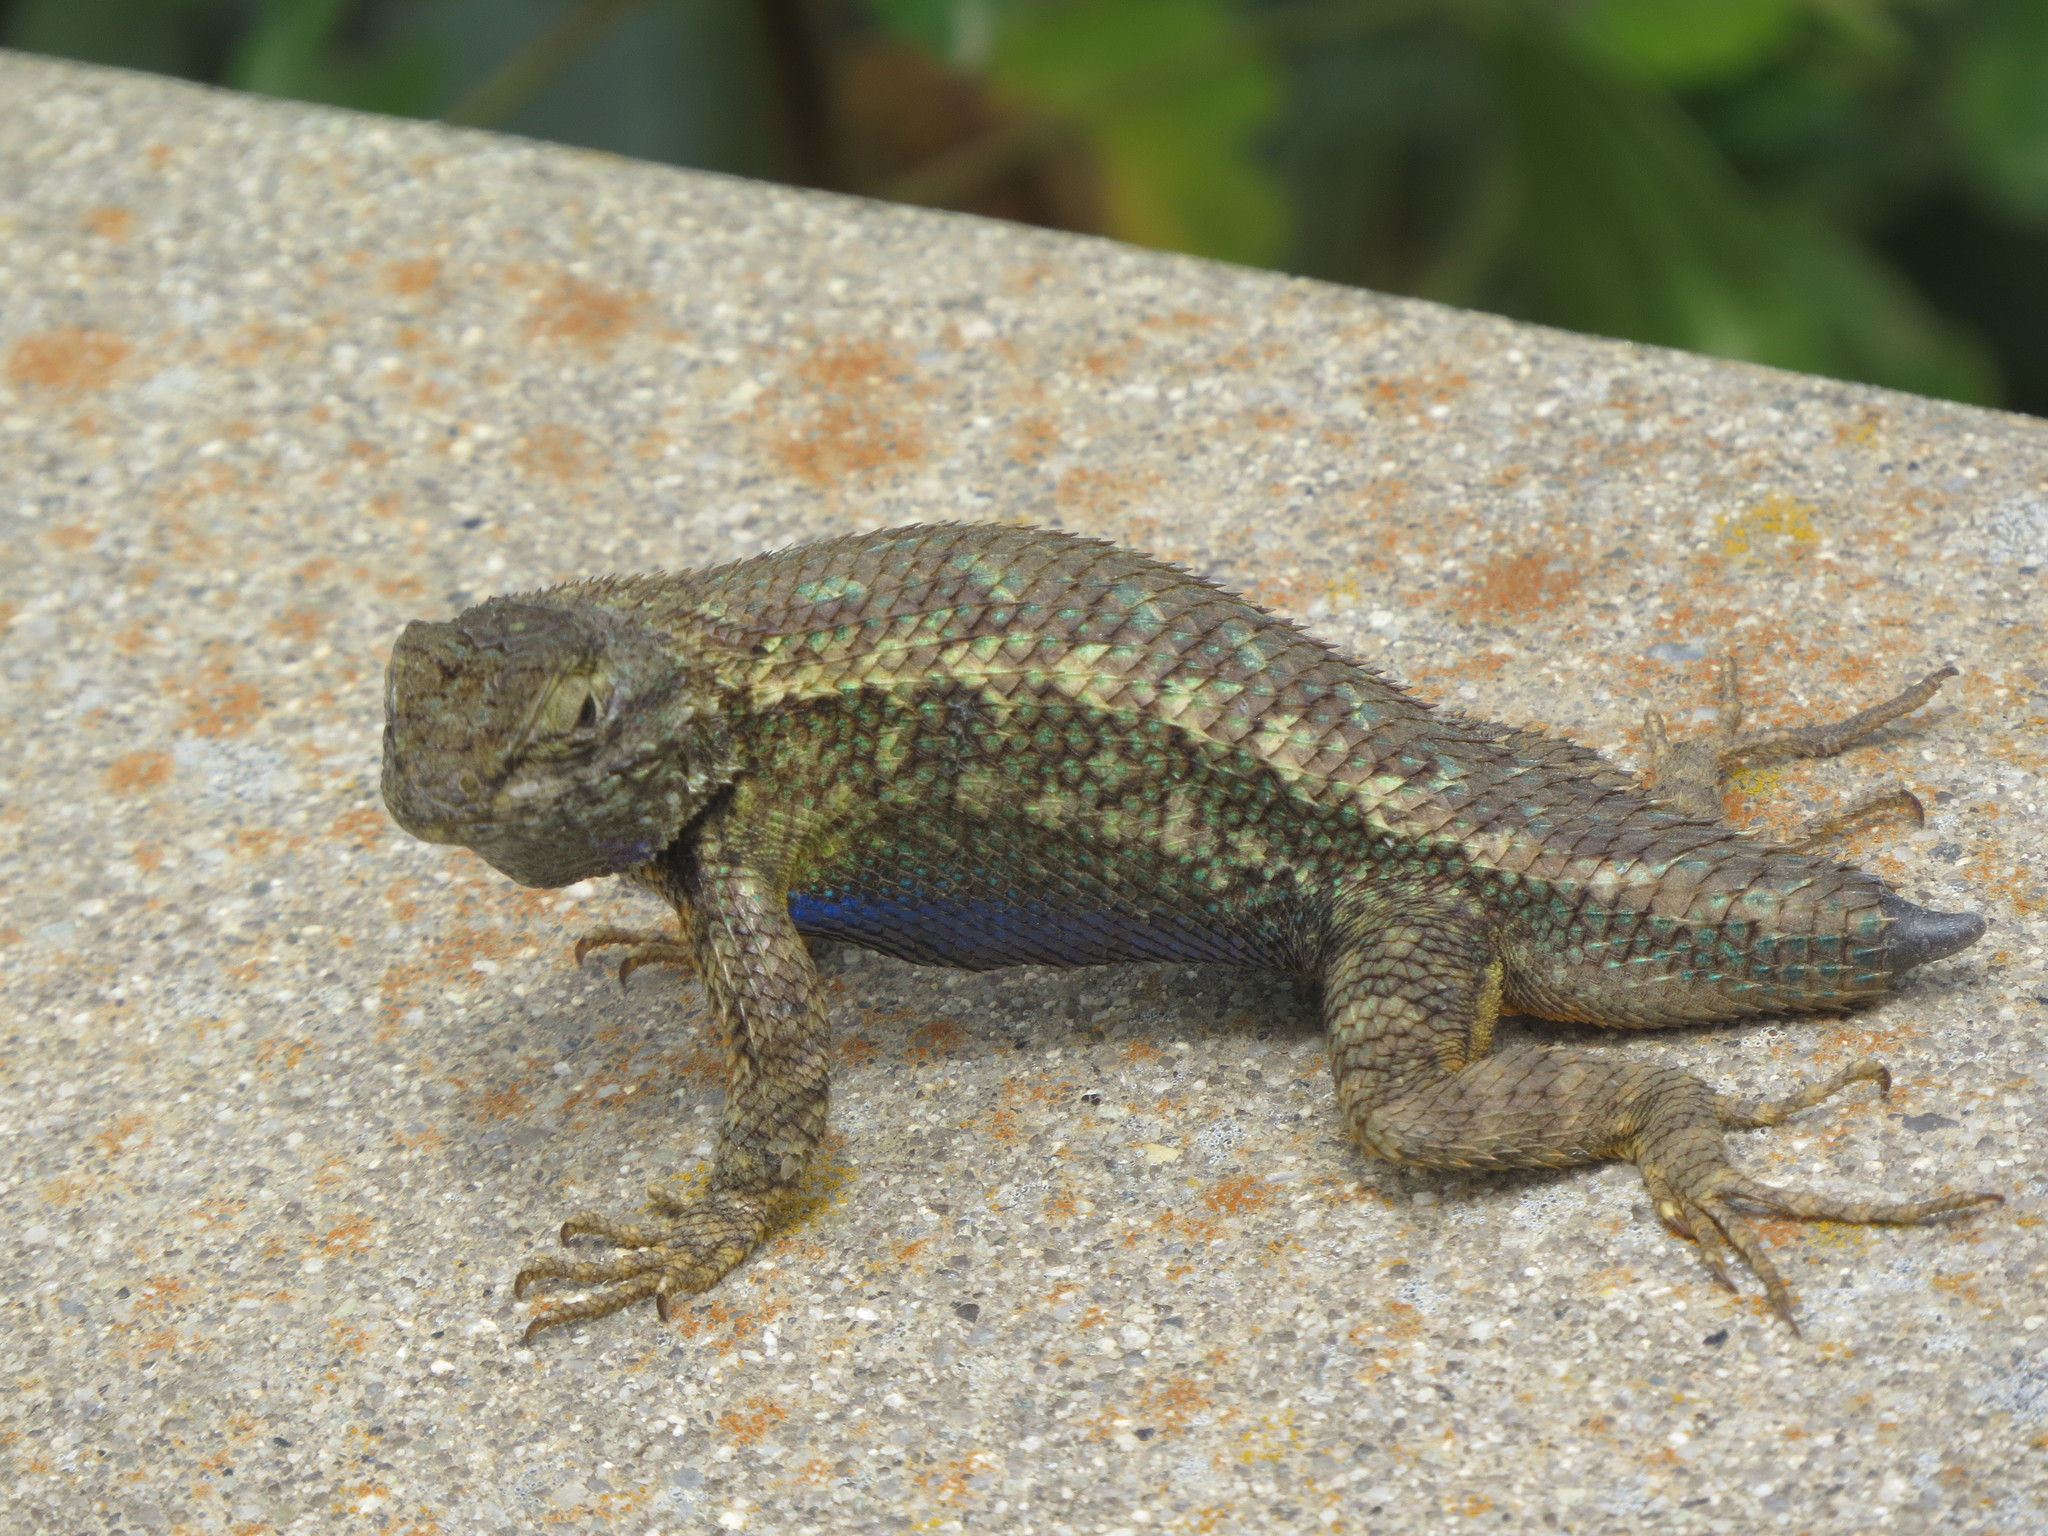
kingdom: Animalia
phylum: Chordata
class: Squamata
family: Phrynosomatidae
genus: Sceloporus
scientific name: Sceloporus occidentalis
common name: Western fence lizard
